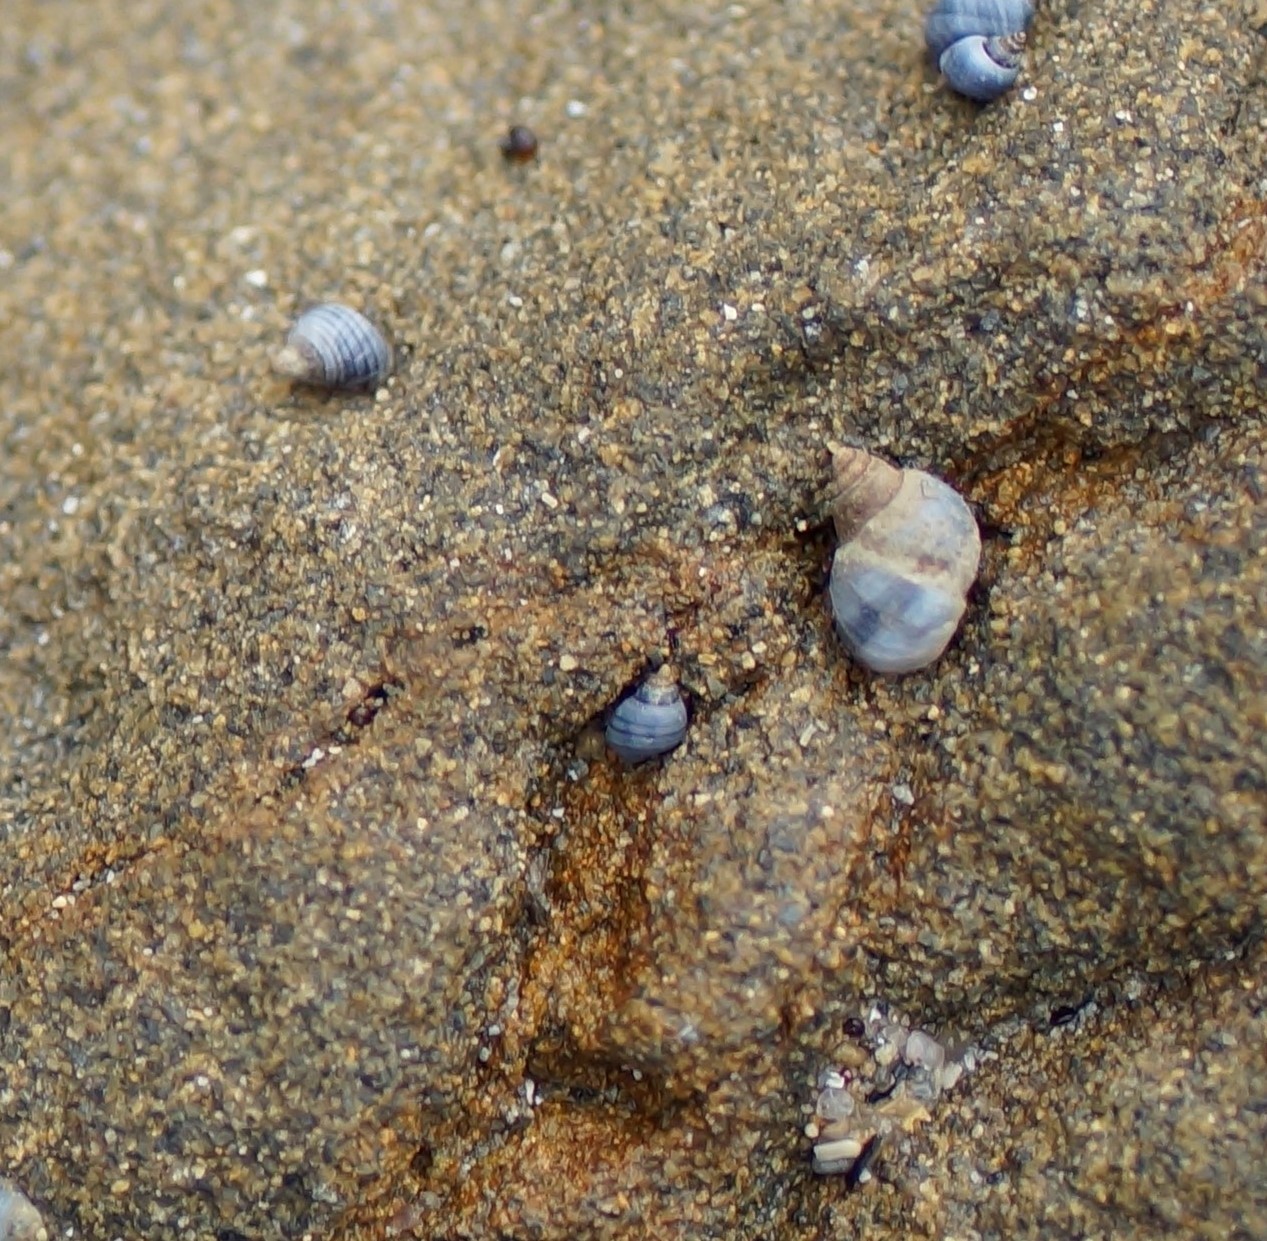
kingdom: Animalia
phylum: Mollusca
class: Gastropoda
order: Littorinimorpha
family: Littorinidae
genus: Austrolittorina
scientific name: Austrolittorina unifasciata
